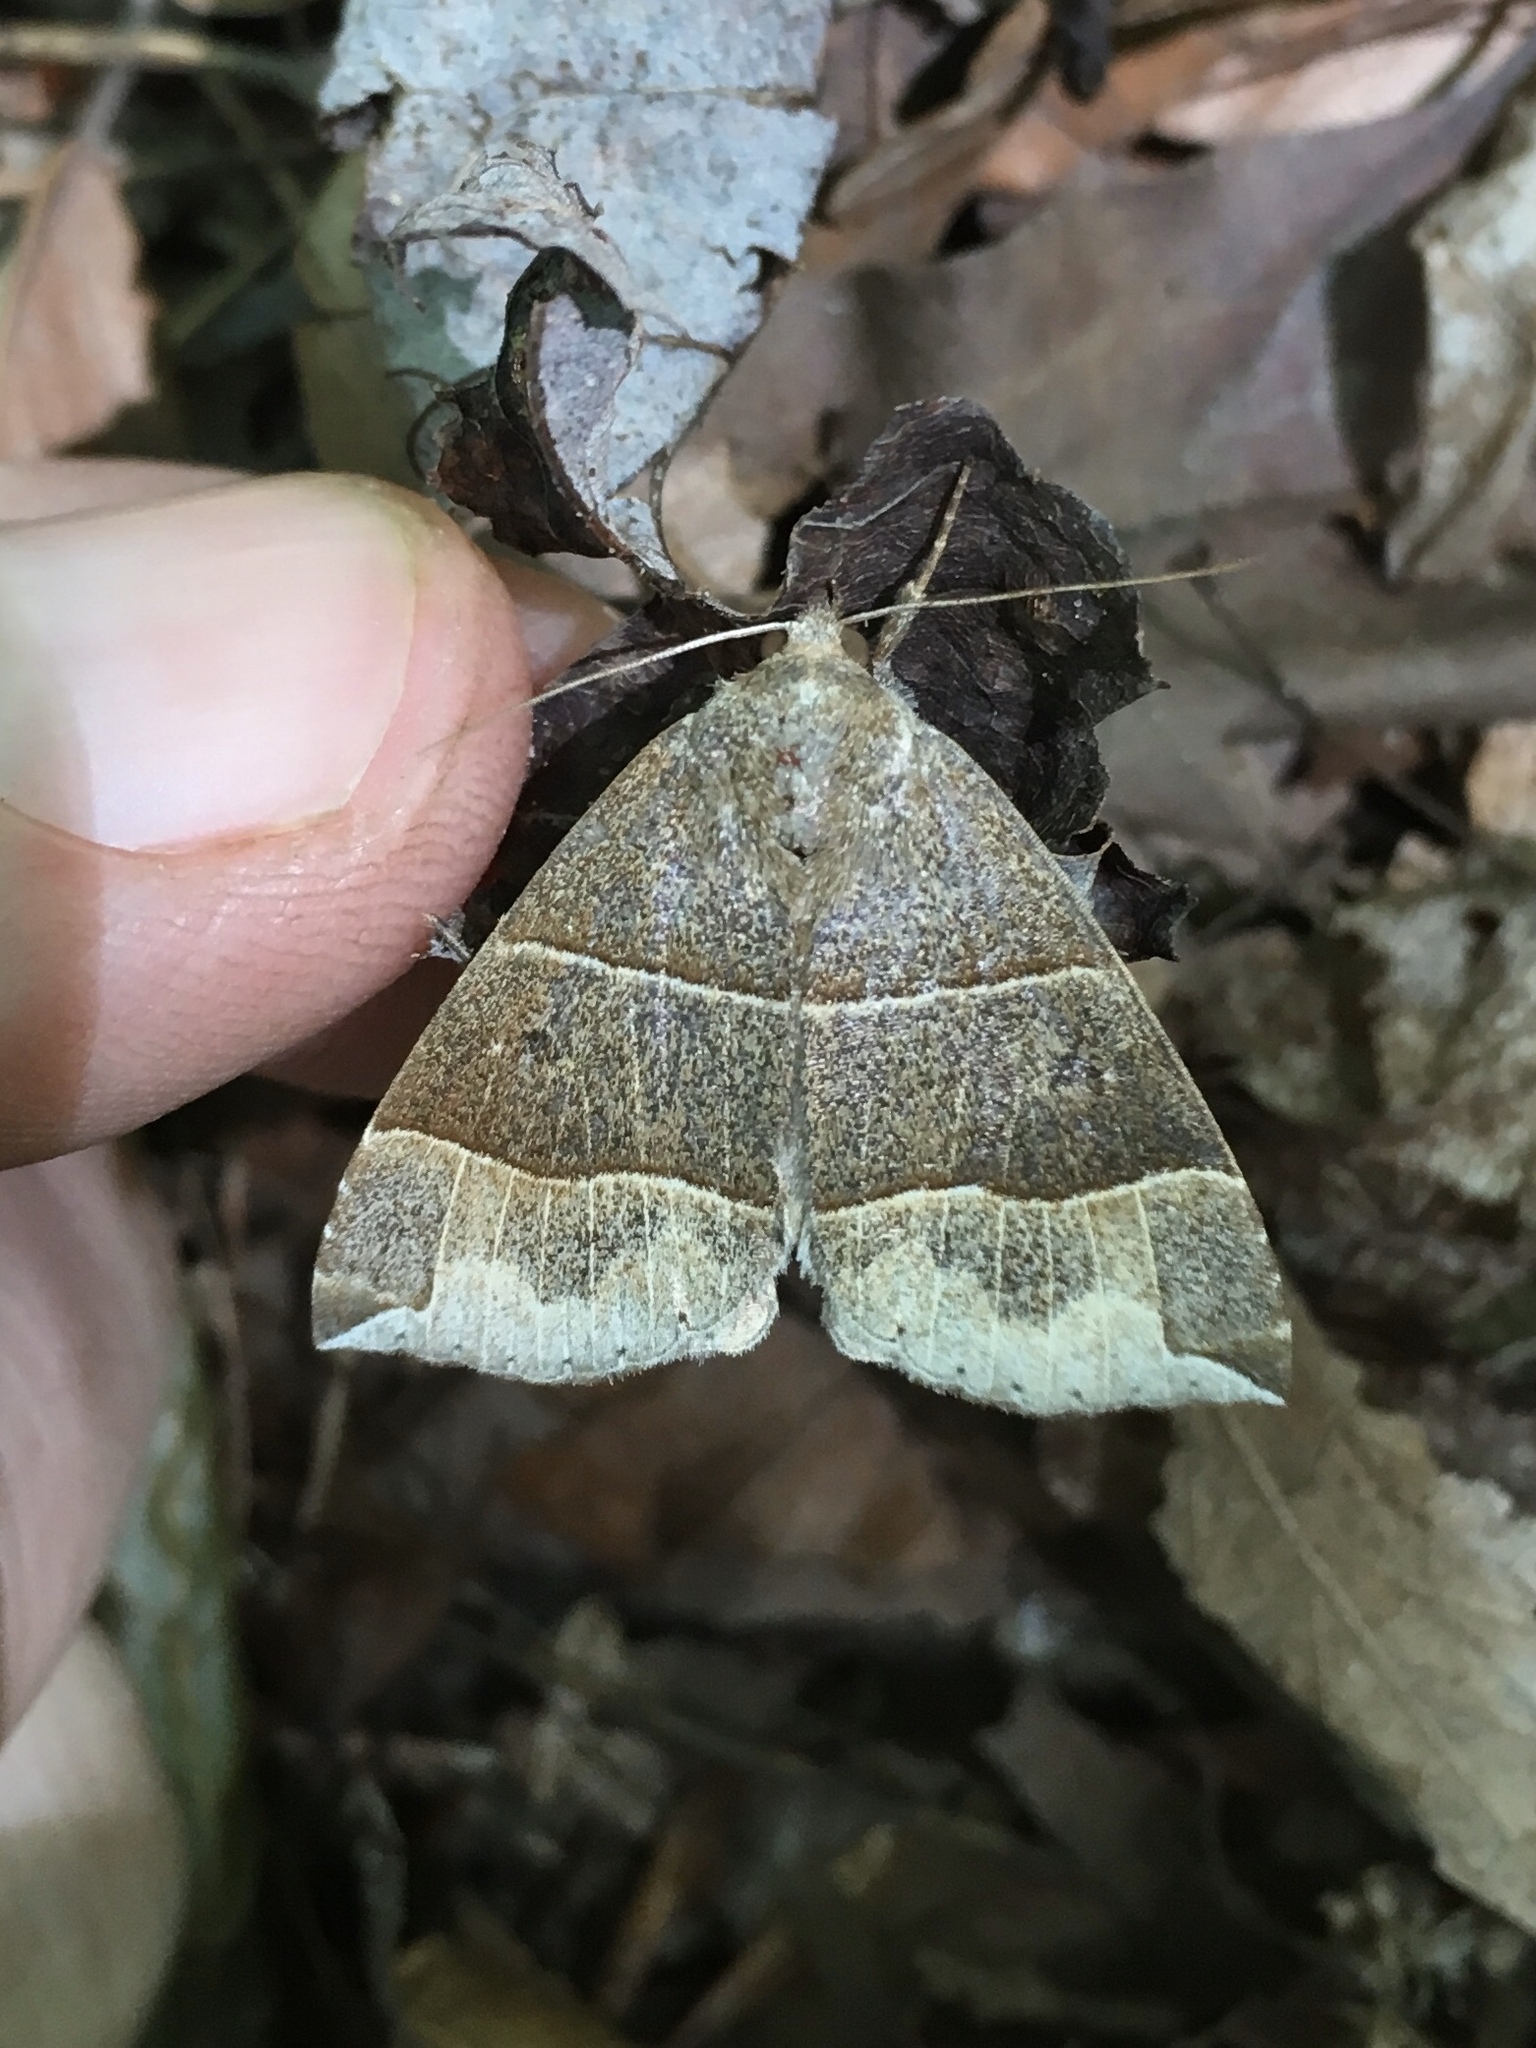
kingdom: Animalia
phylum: Arthropoda
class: Insecta
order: Lepidoptera
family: Erebidae
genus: Parallelia
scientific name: Parallelia bistriaris
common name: Maple looper moth
